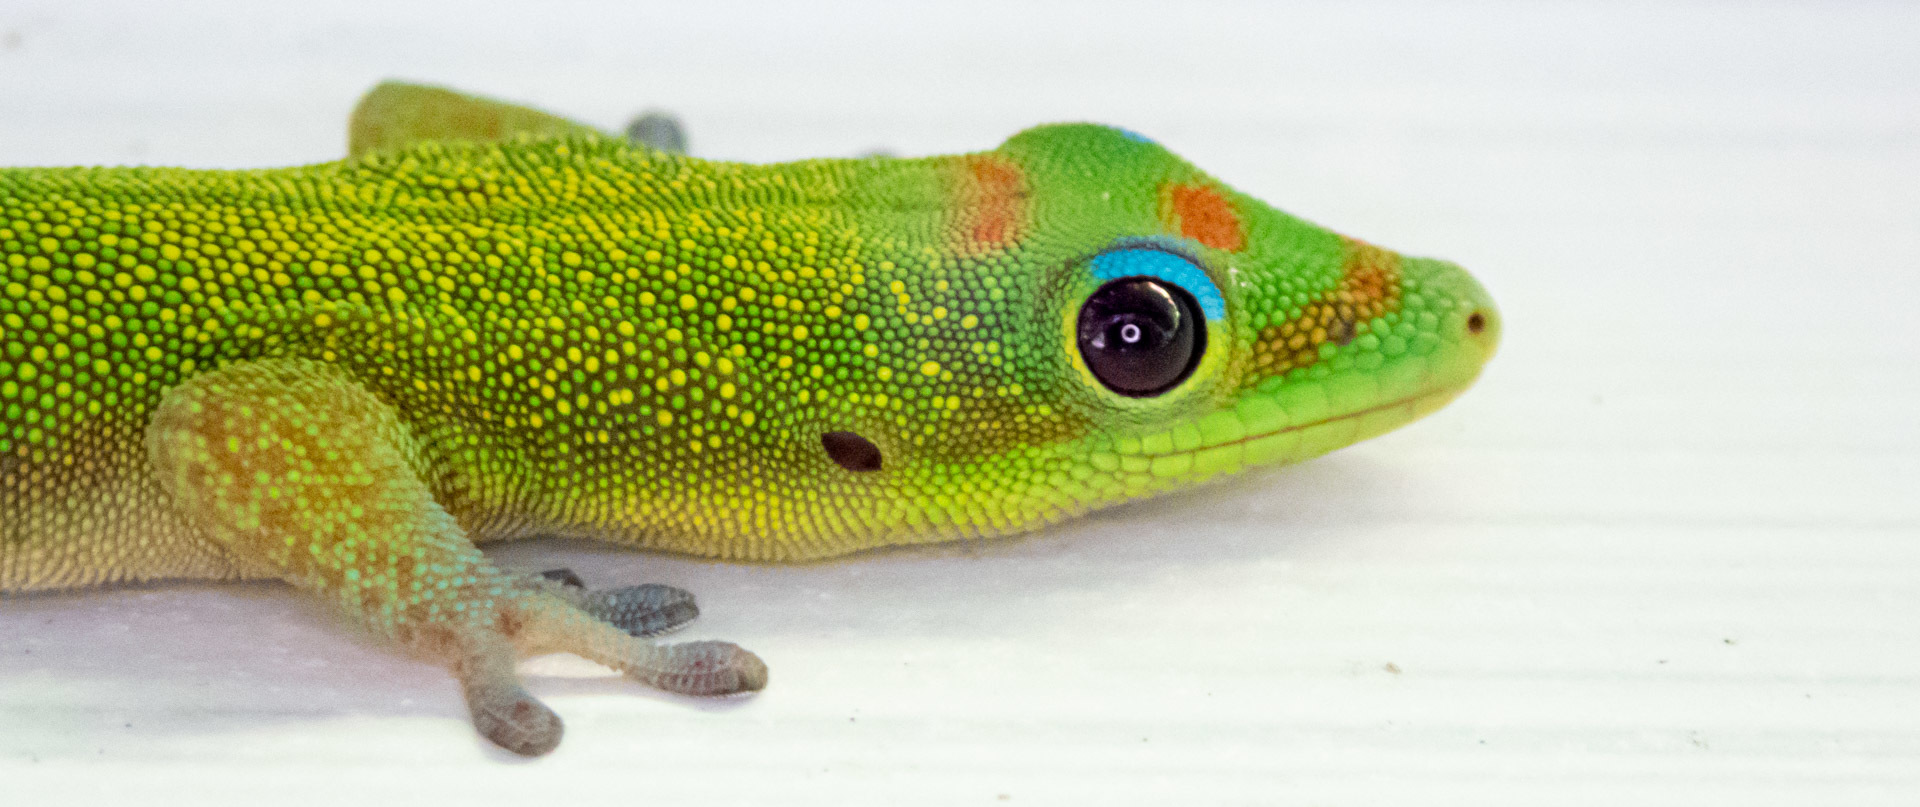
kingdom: Animalia
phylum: Chordata
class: Squamata
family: Gekkonidae
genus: Phelsuma
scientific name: Phelsuma laticauda
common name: Gold dust day gecko
